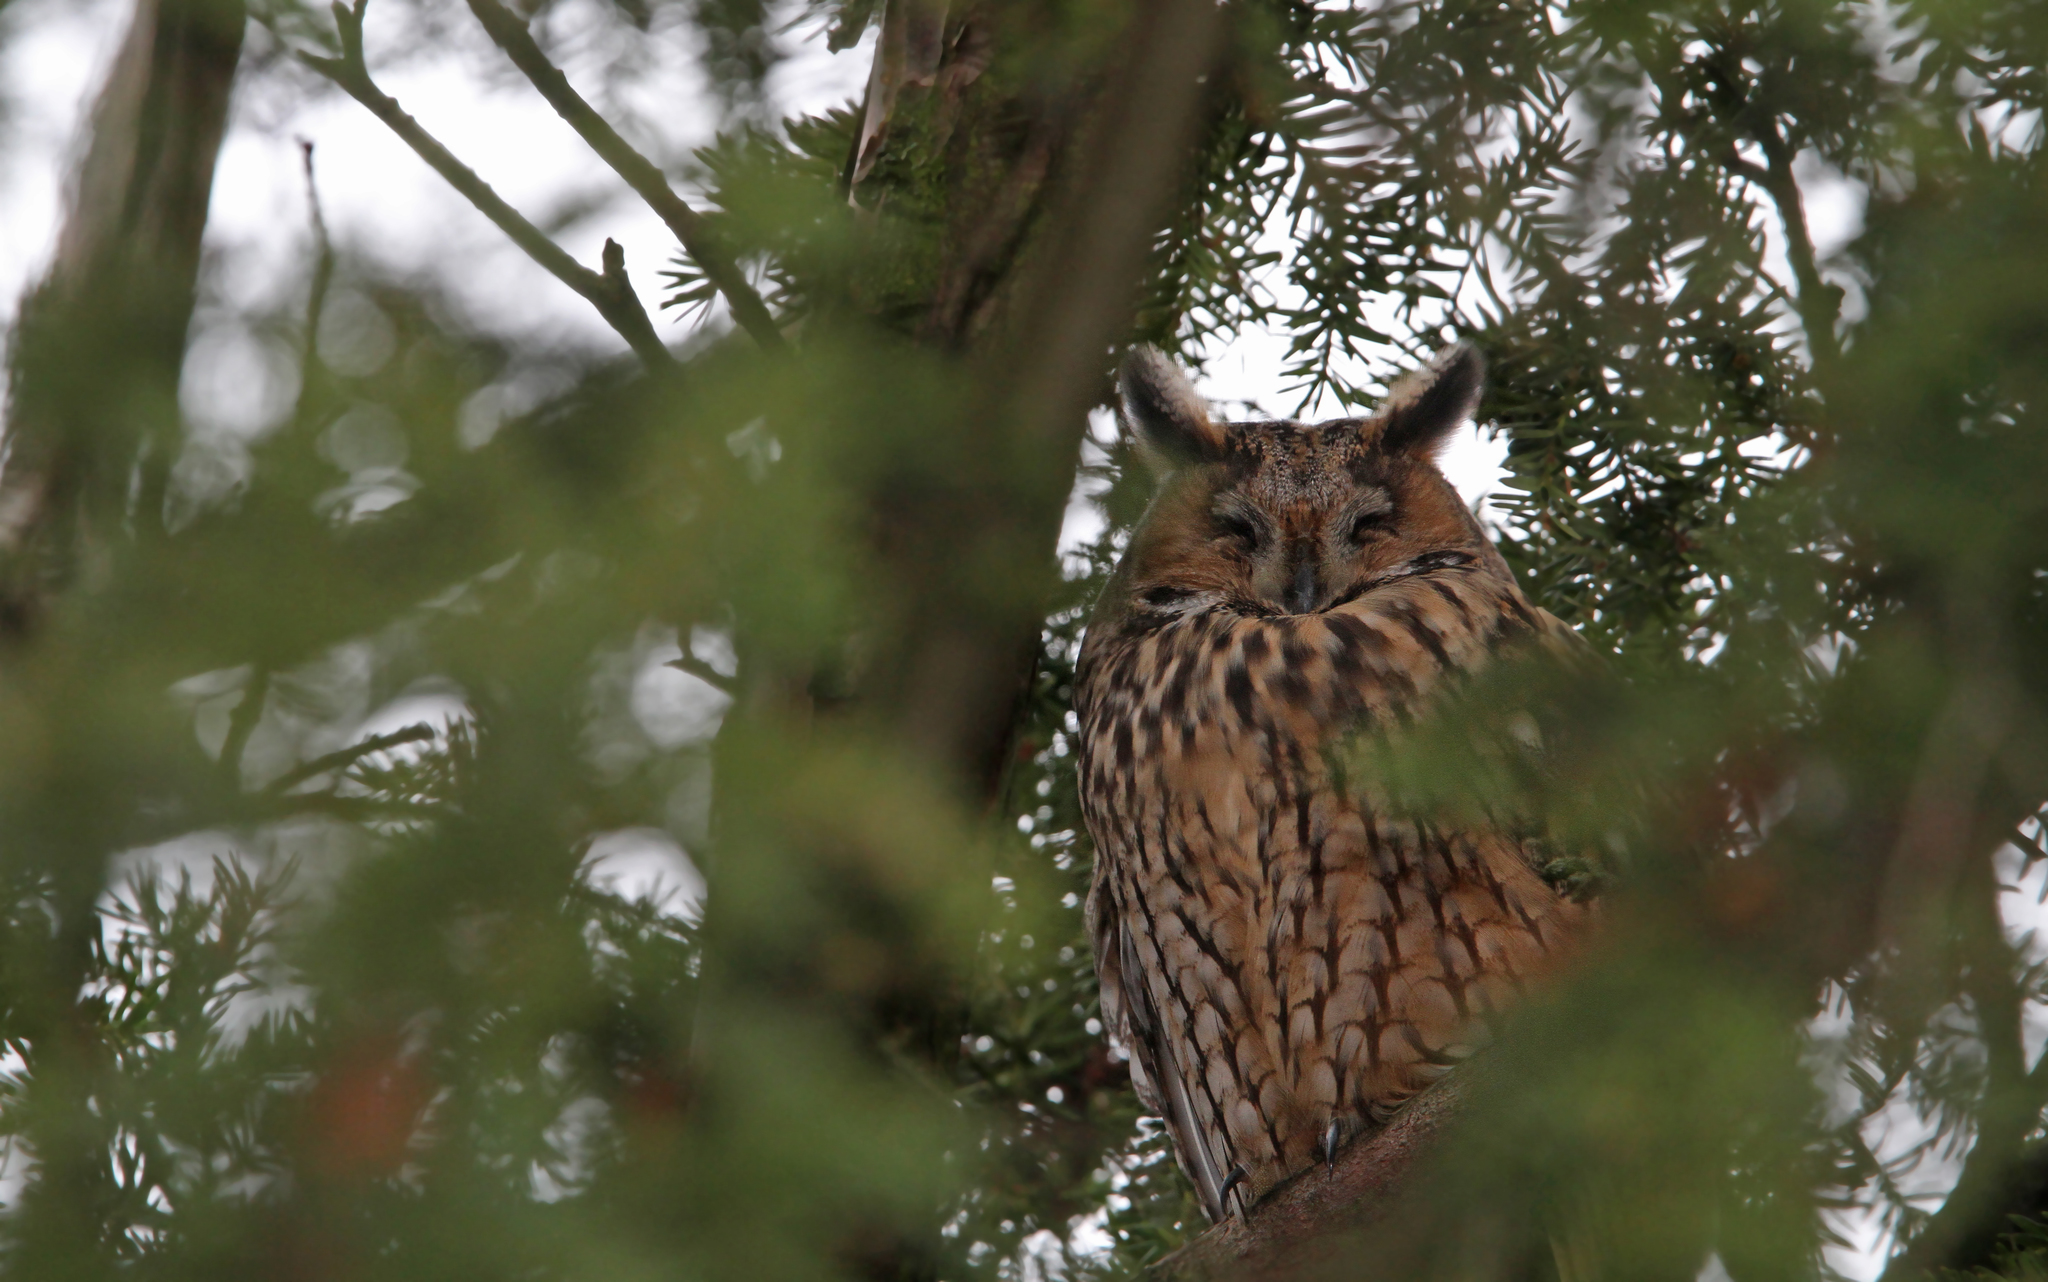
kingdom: Animalia
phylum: Chordata
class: Aves
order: Strigiformes
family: Strigidae
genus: Asio
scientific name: Asio otus
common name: Long-eared owl
